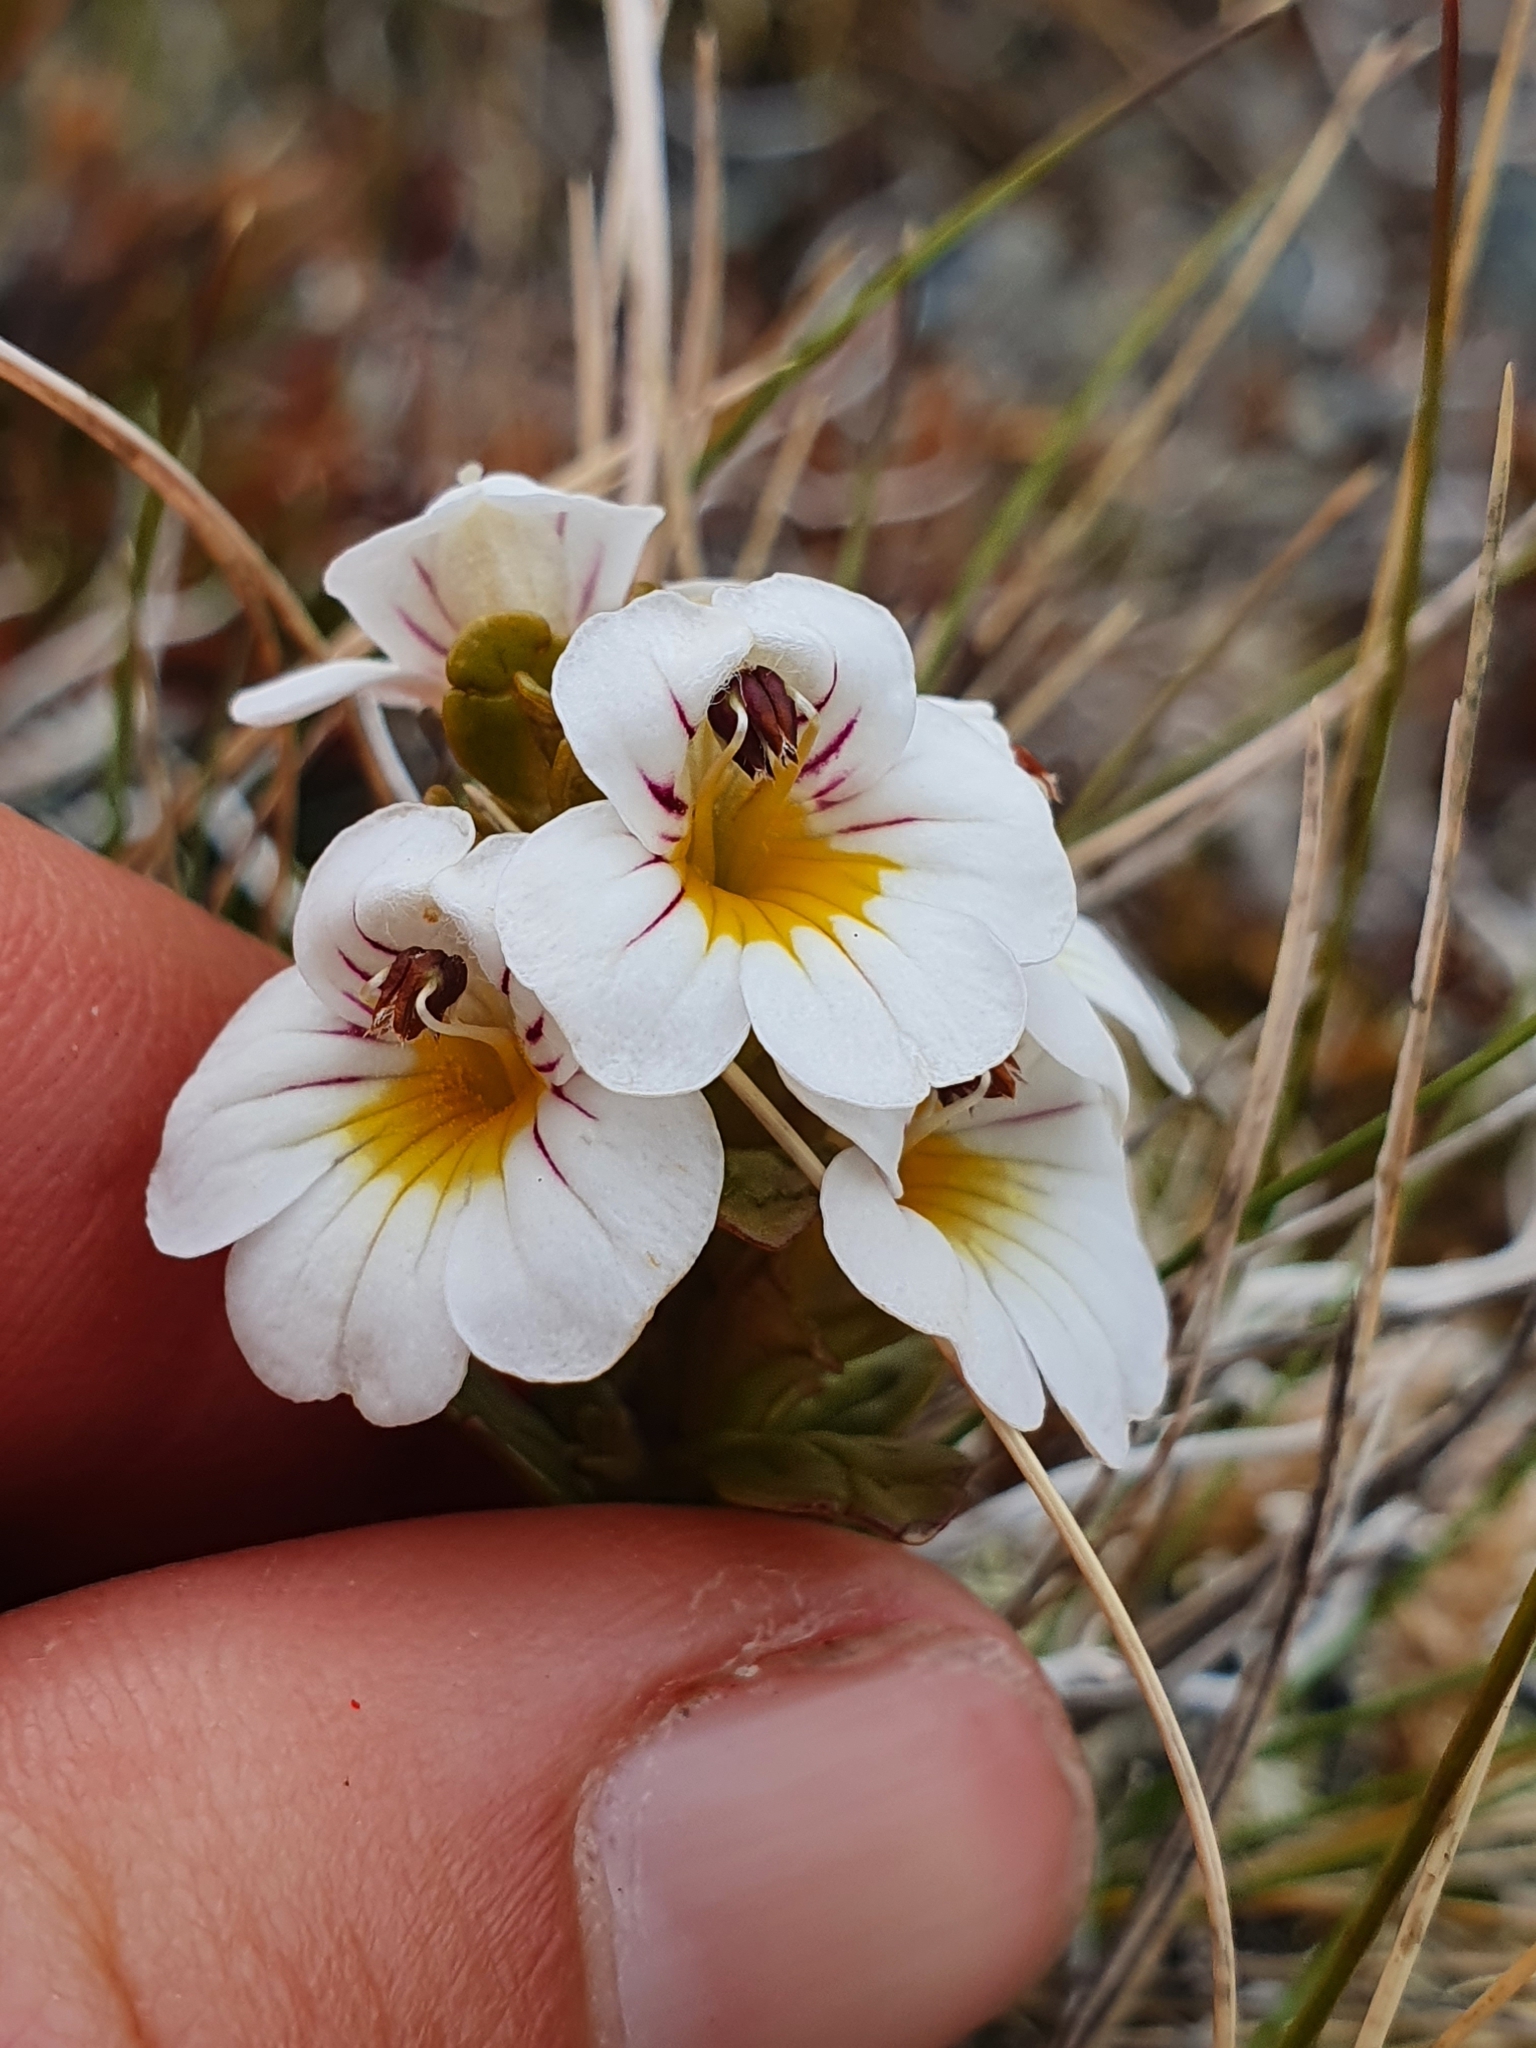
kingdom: Plantae
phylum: Tracheophyta
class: Magnoliopsida
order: Lamiales
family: Orobanchaceae
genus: Euphrasia
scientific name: Euphrasia monroi
